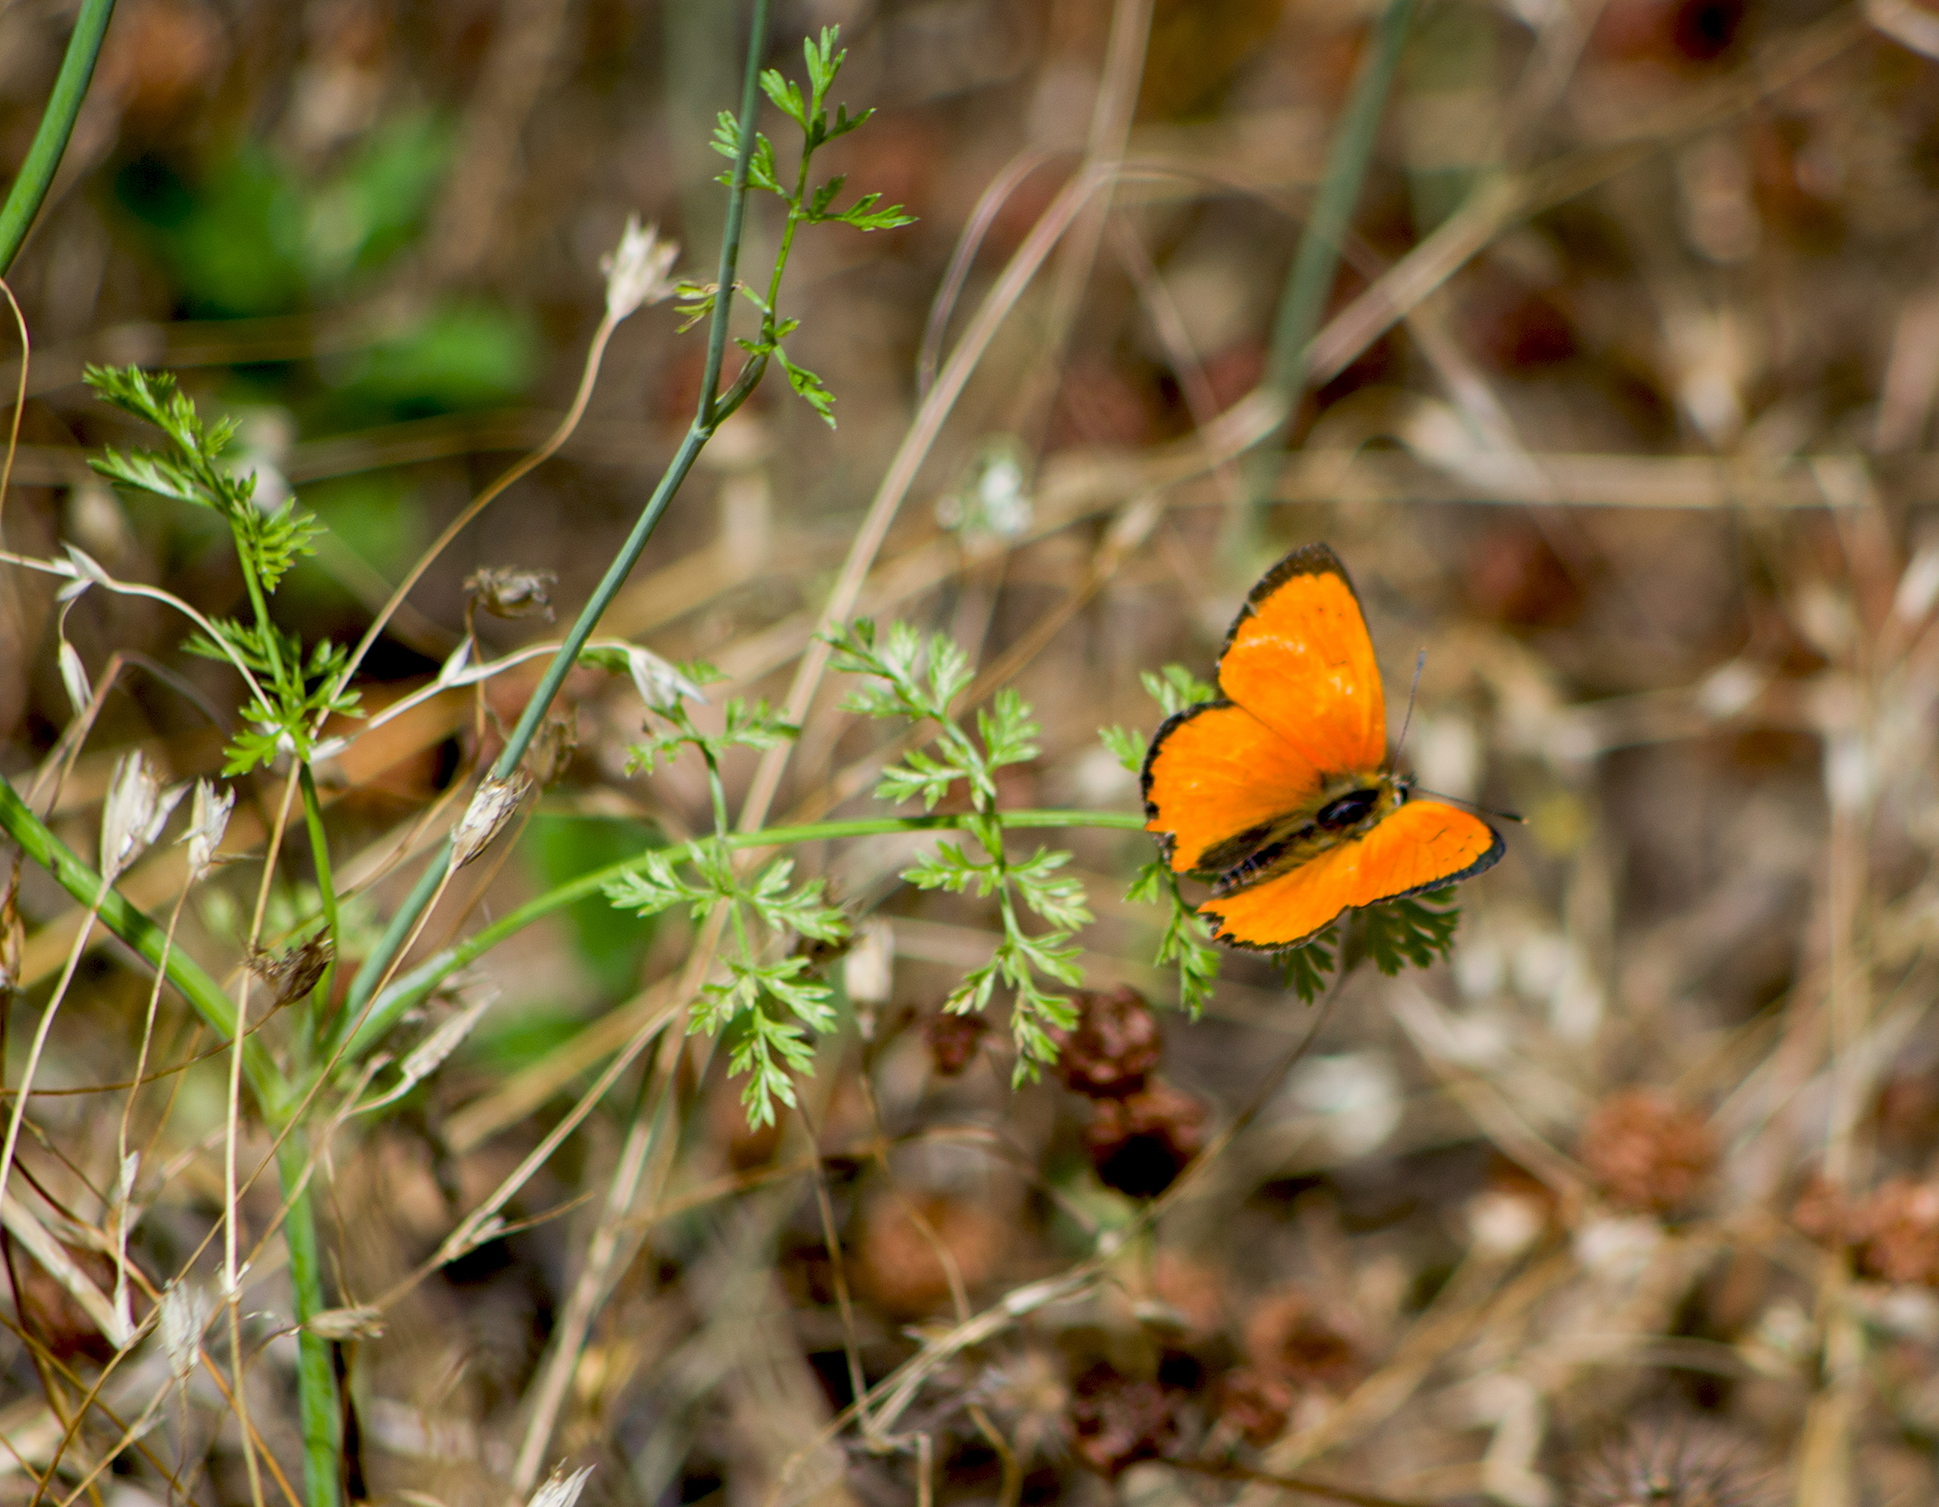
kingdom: Animalia
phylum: Arthropoda
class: Insecta
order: Lepidoptera
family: Lycaenidae
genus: Polyommatus
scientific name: Polyommatus ottomanus
